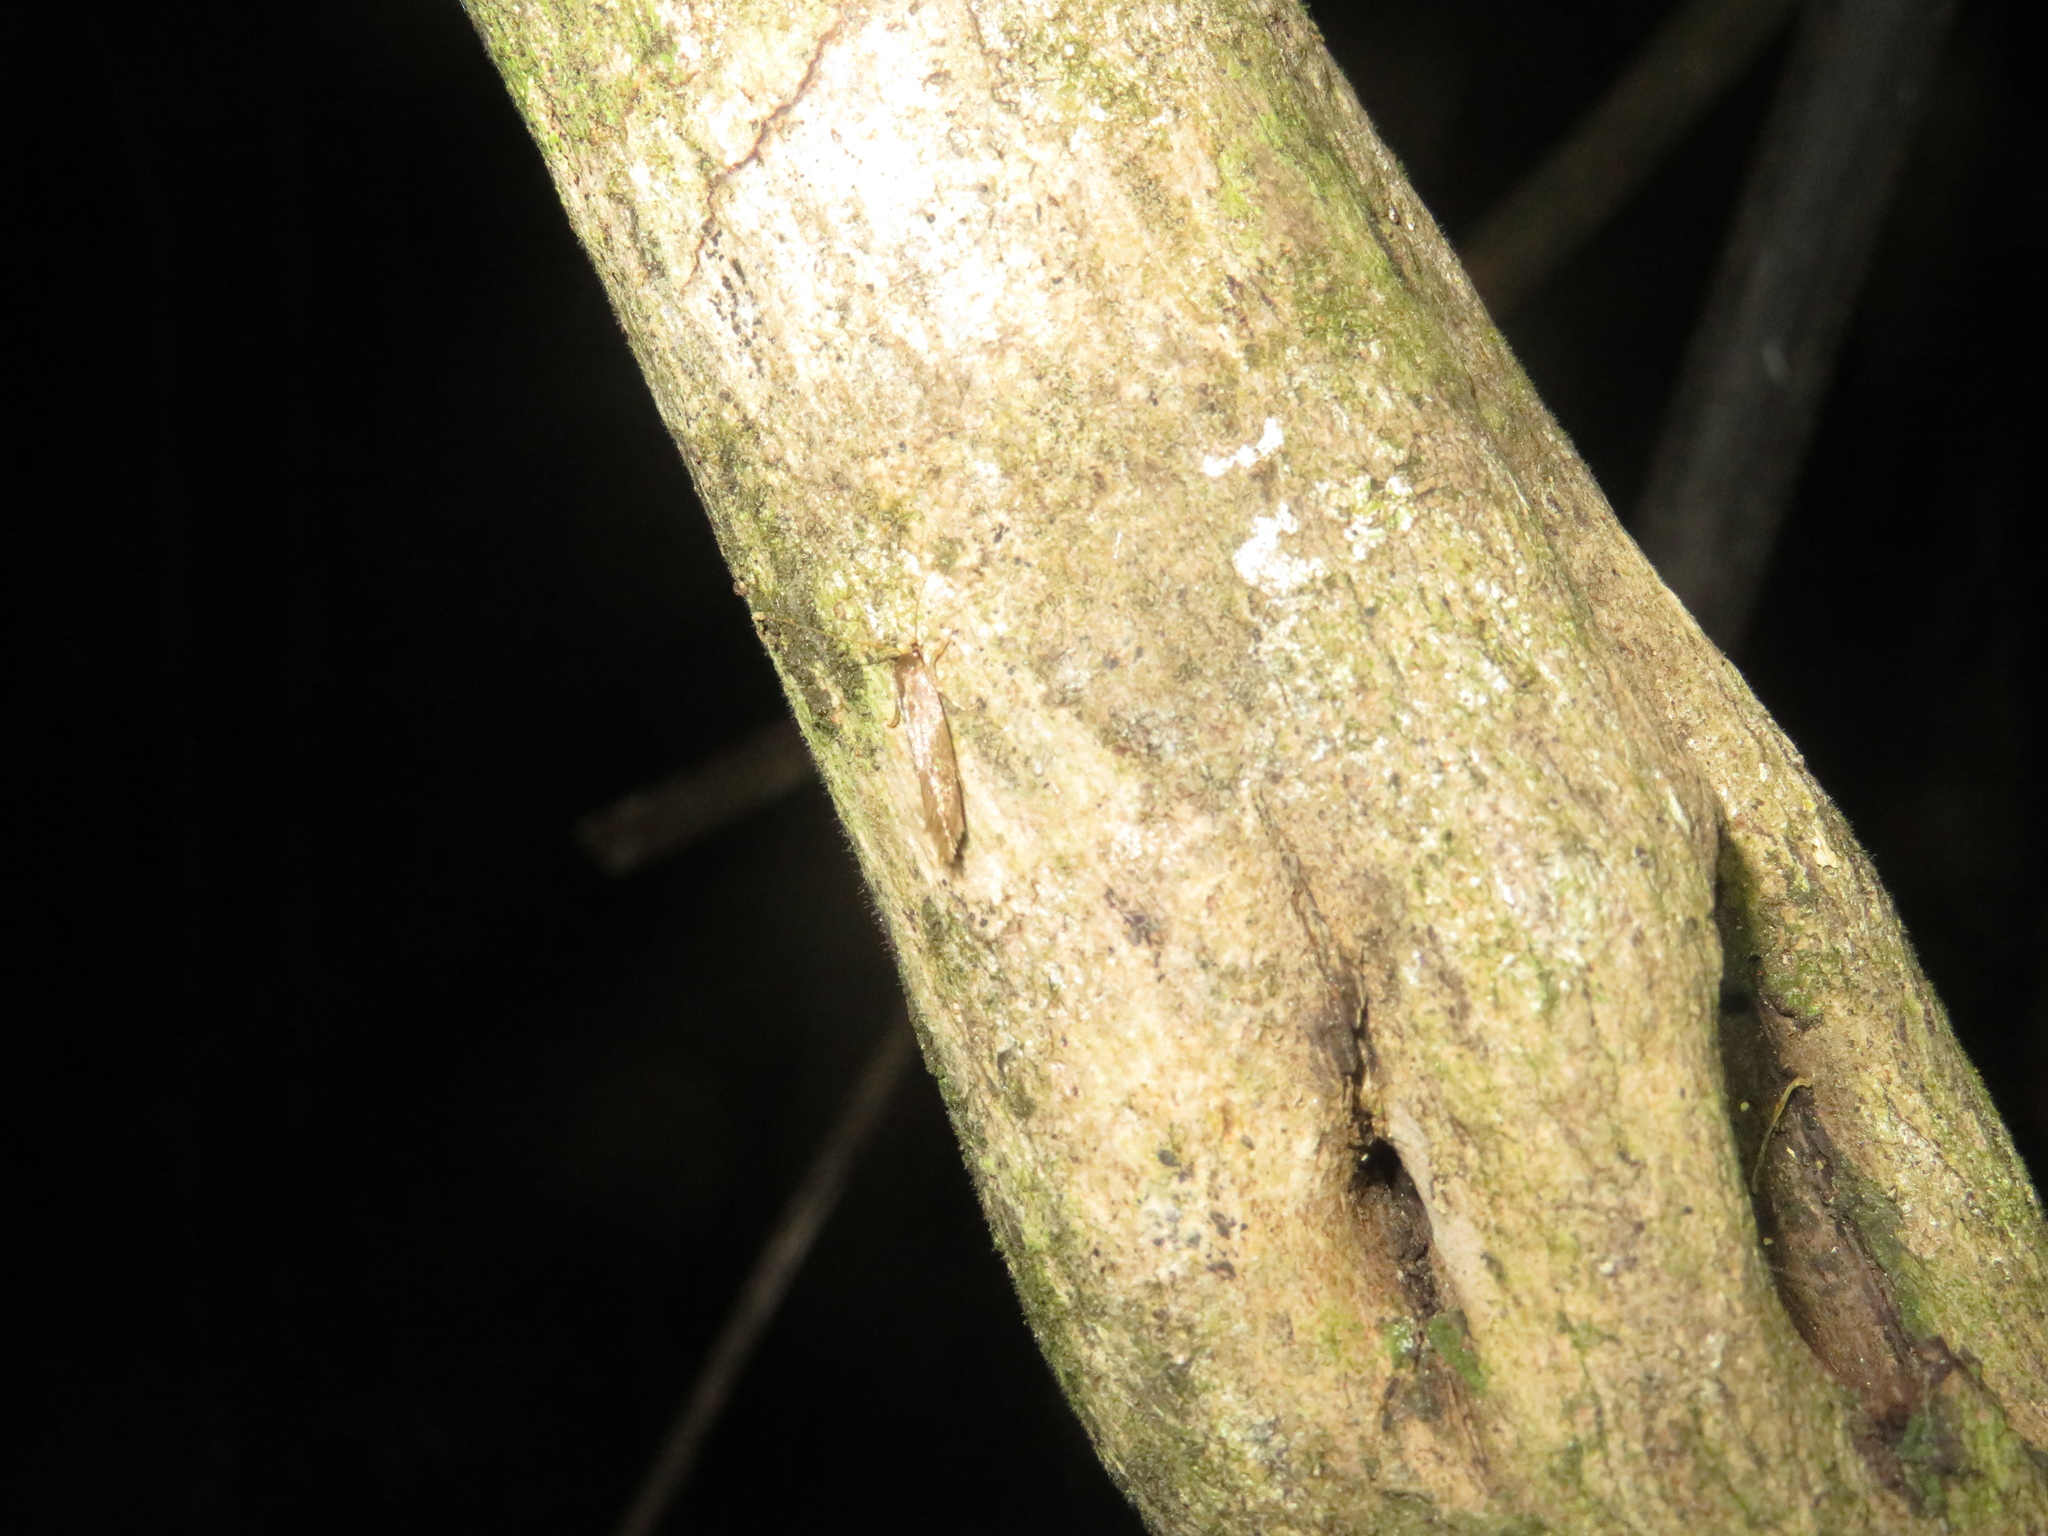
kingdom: Animalia
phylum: Arthropoda
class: Insecta
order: Lepidoptera
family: Tineidae
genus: Opogona
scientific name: Opogona omoscopa
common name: Moth
